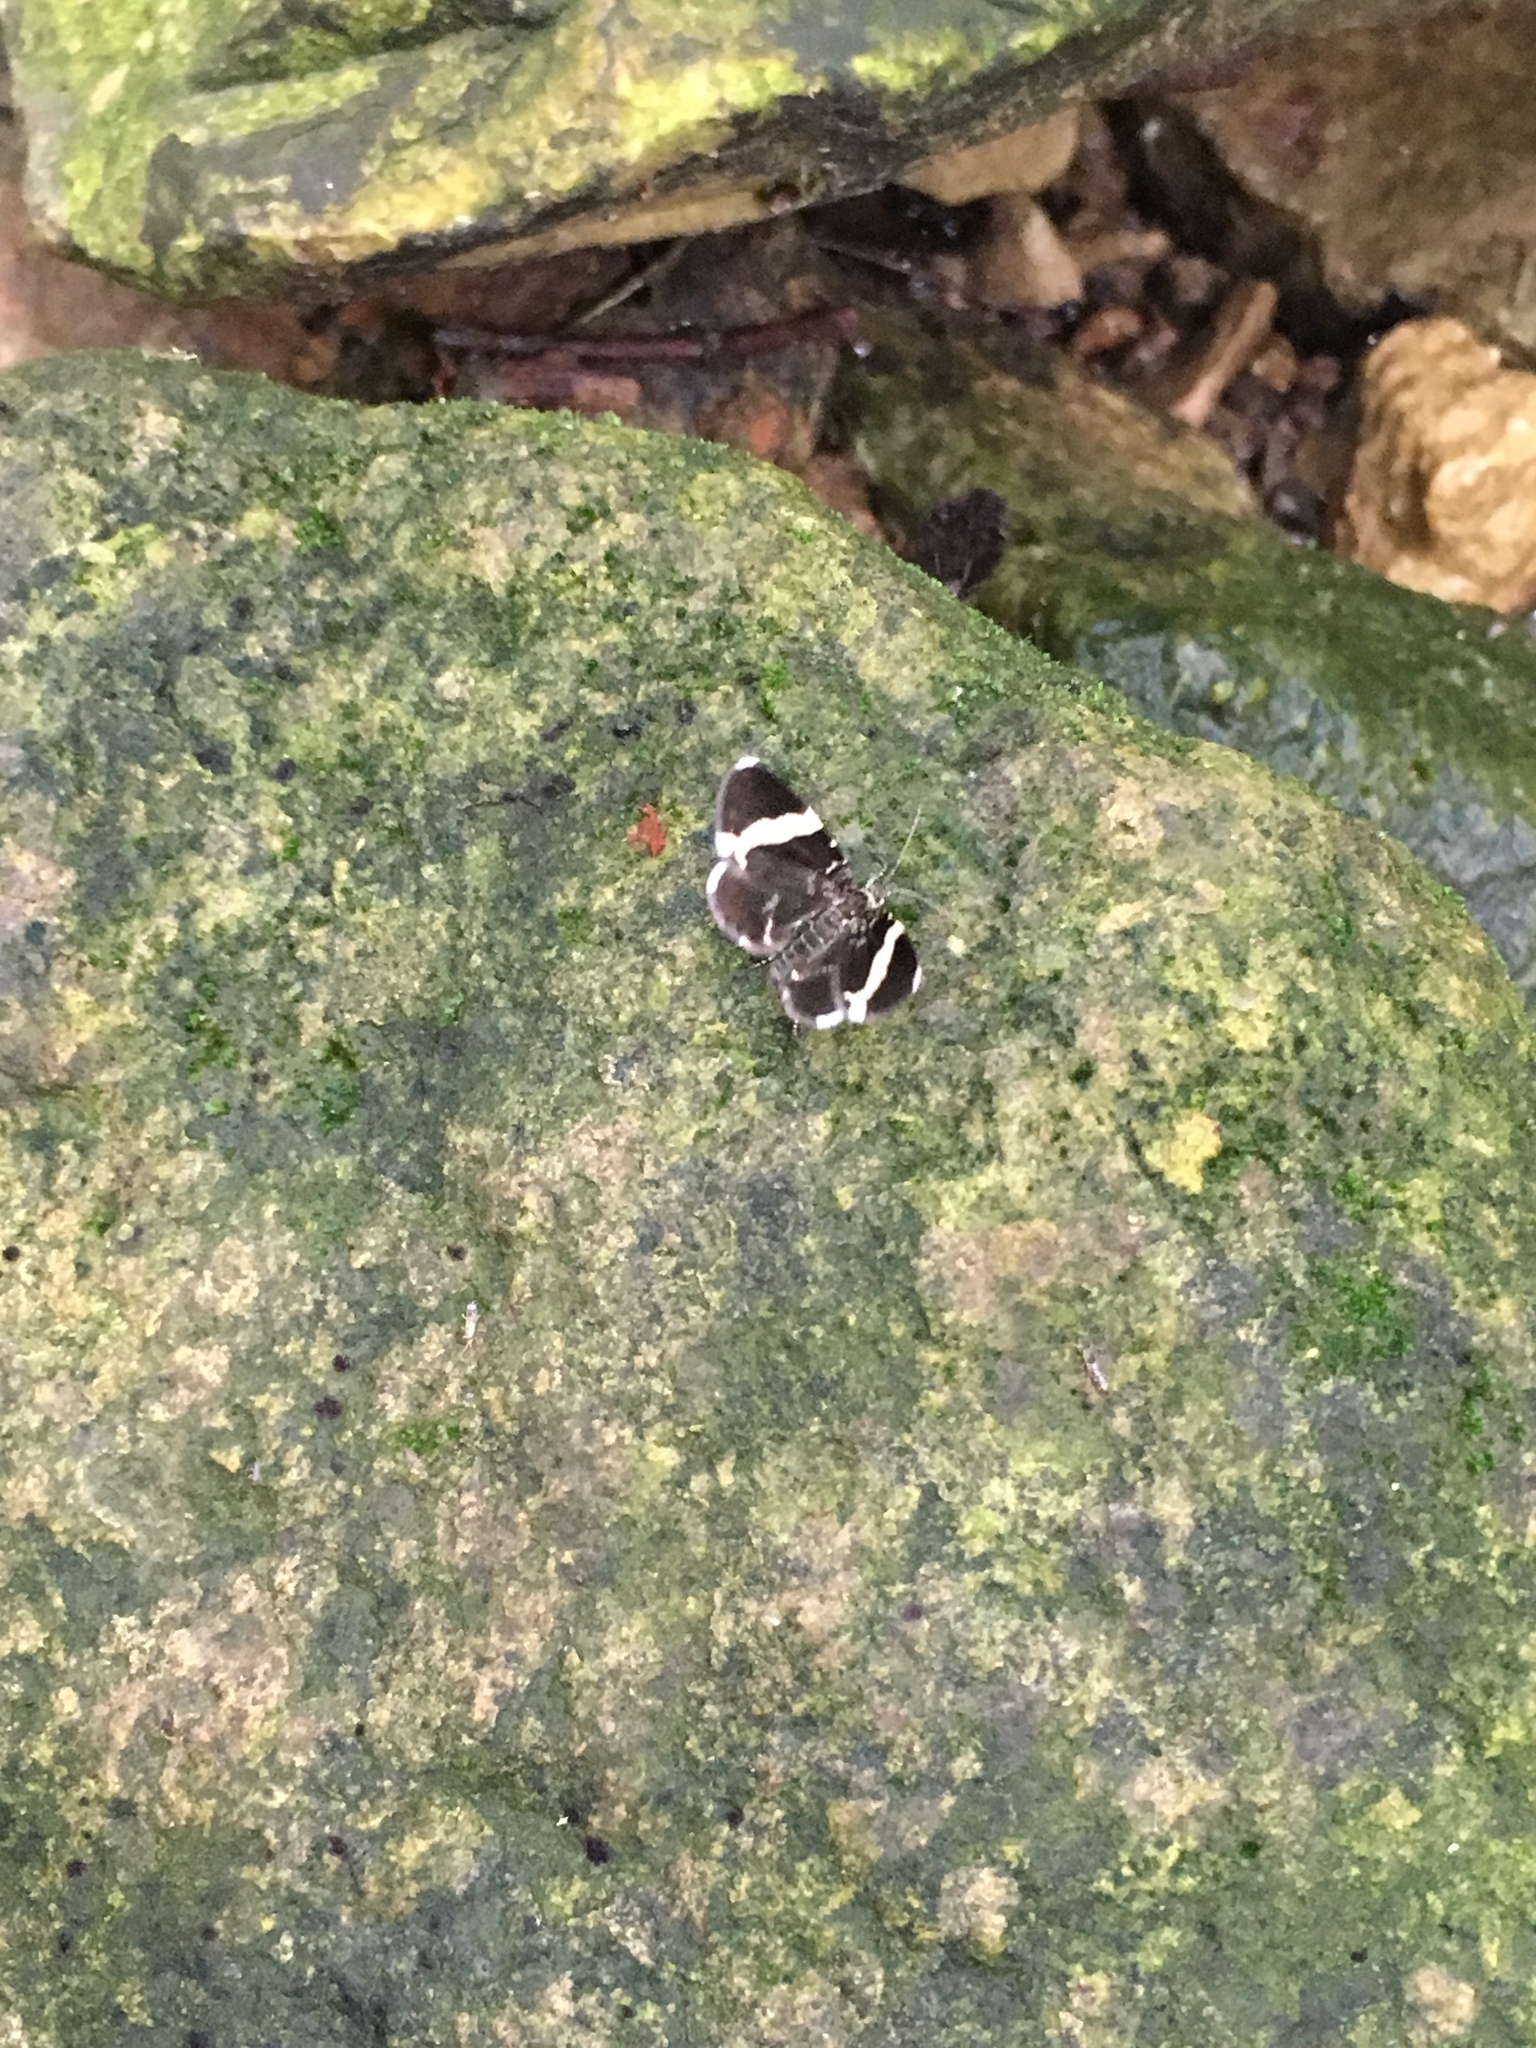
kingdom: Animalia
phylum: Arthropoda
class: Insecta
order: Lepidoptera
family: Geometridae
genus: Trichodezia
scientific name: Trichodezia albovittata
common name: White striped black
